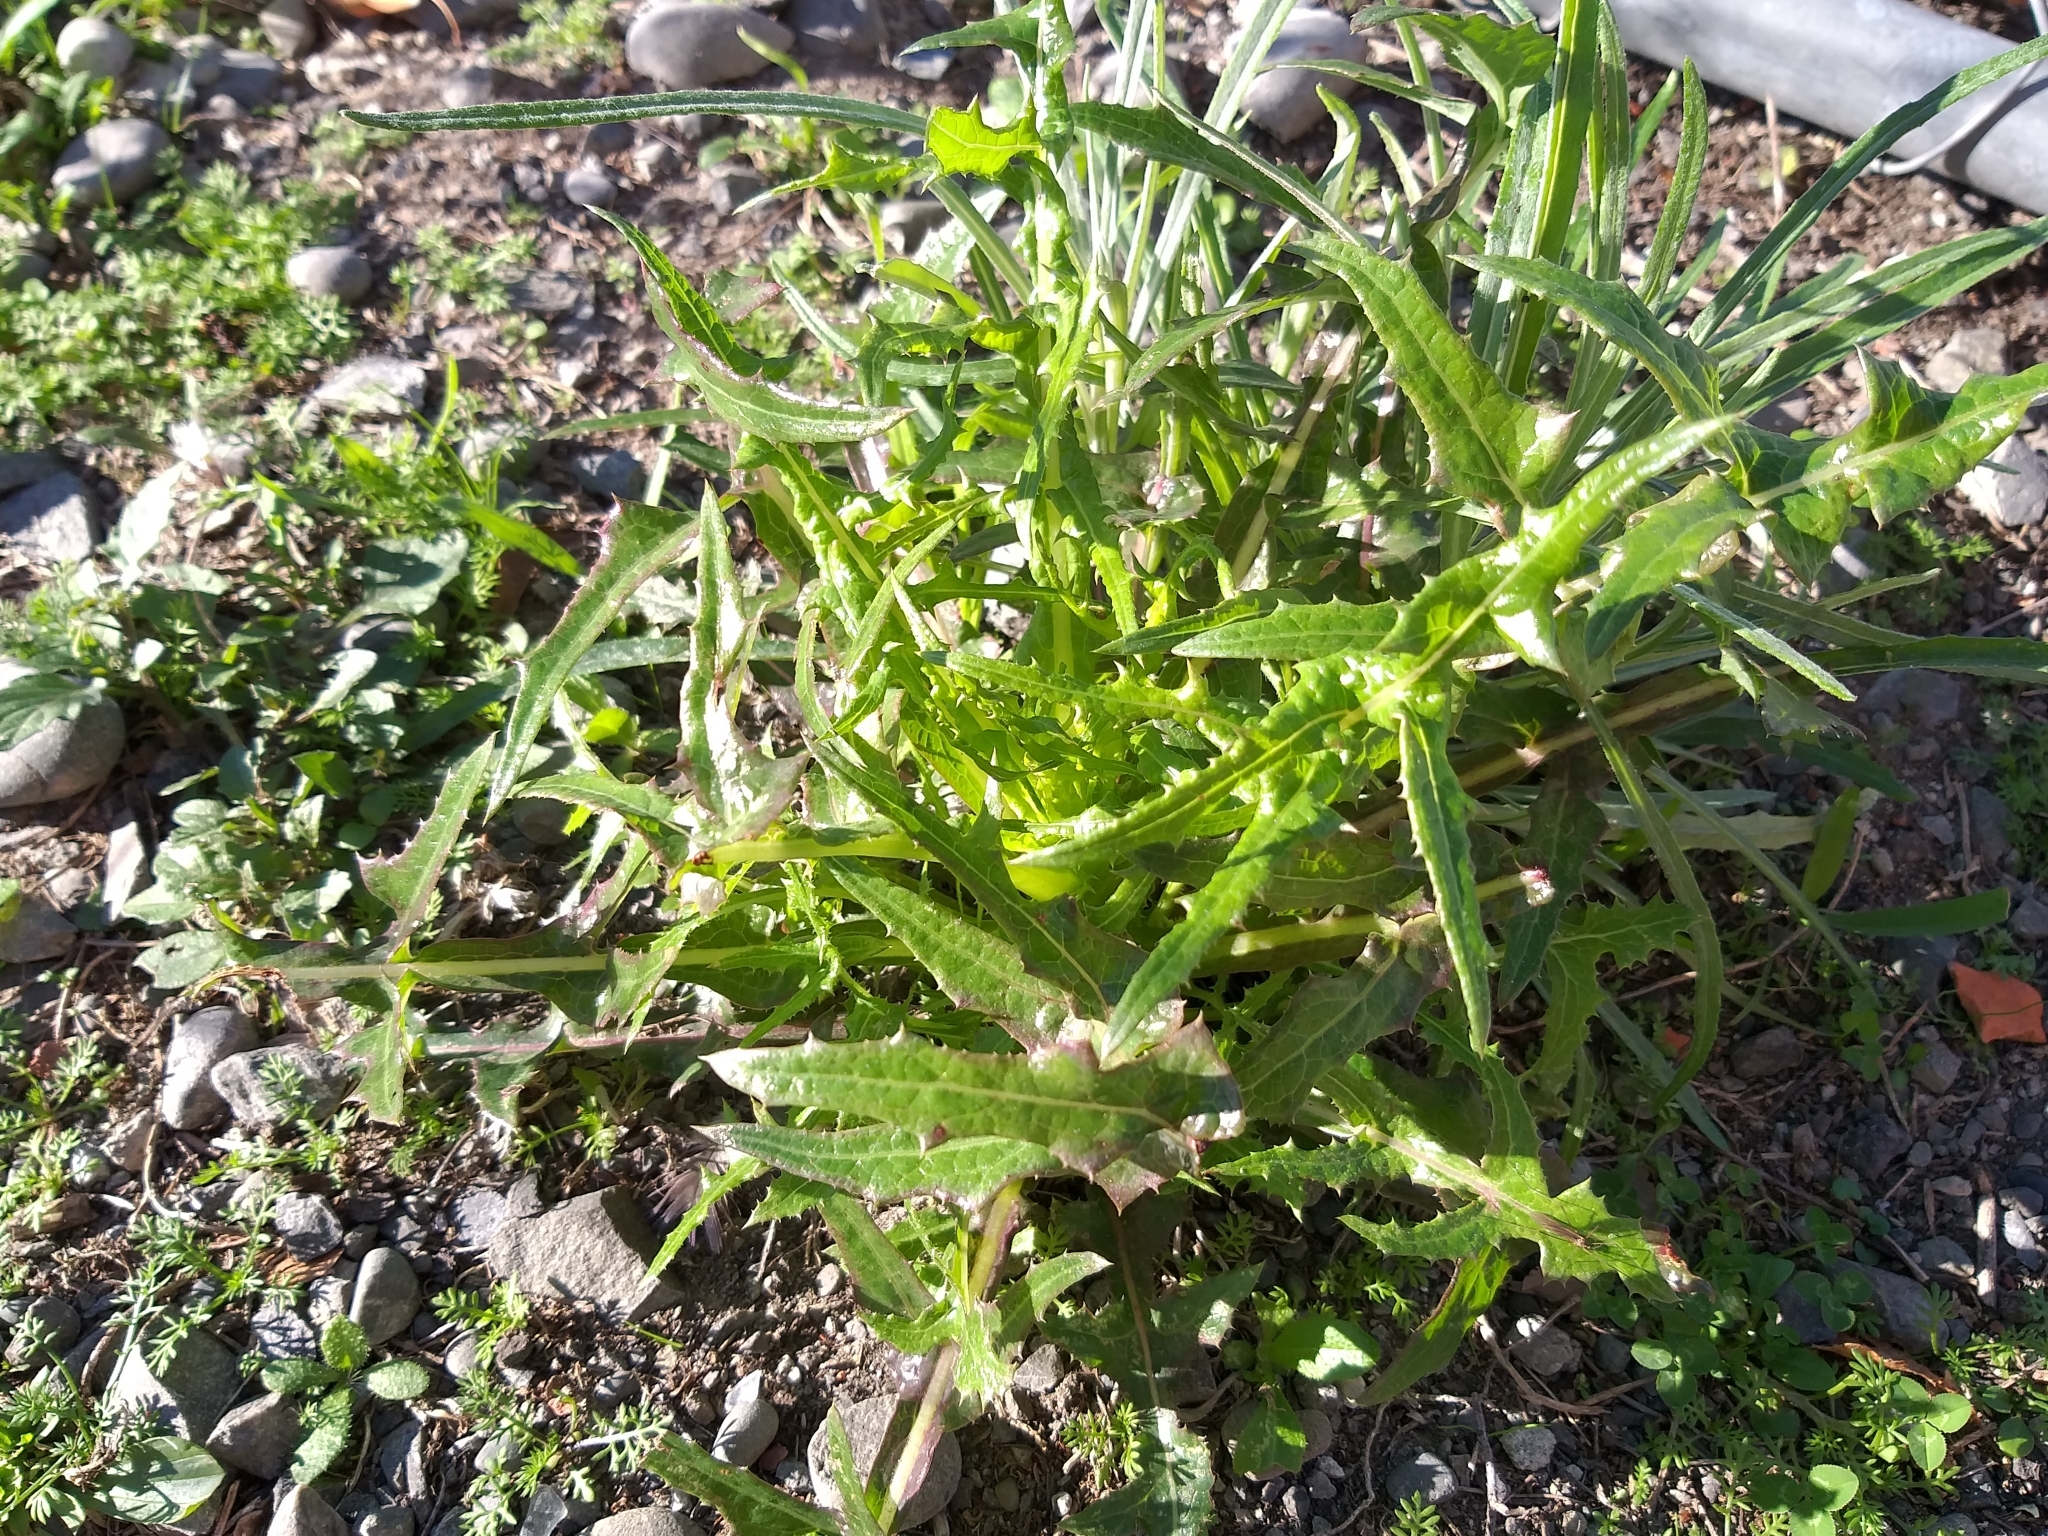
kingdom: Plantae
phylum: Tracheophyta
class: Magnoliopsida
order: Asterales
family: Asteraceae
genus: Sonchus
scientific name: Sonchus asper
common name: Prickly sow-thistle
